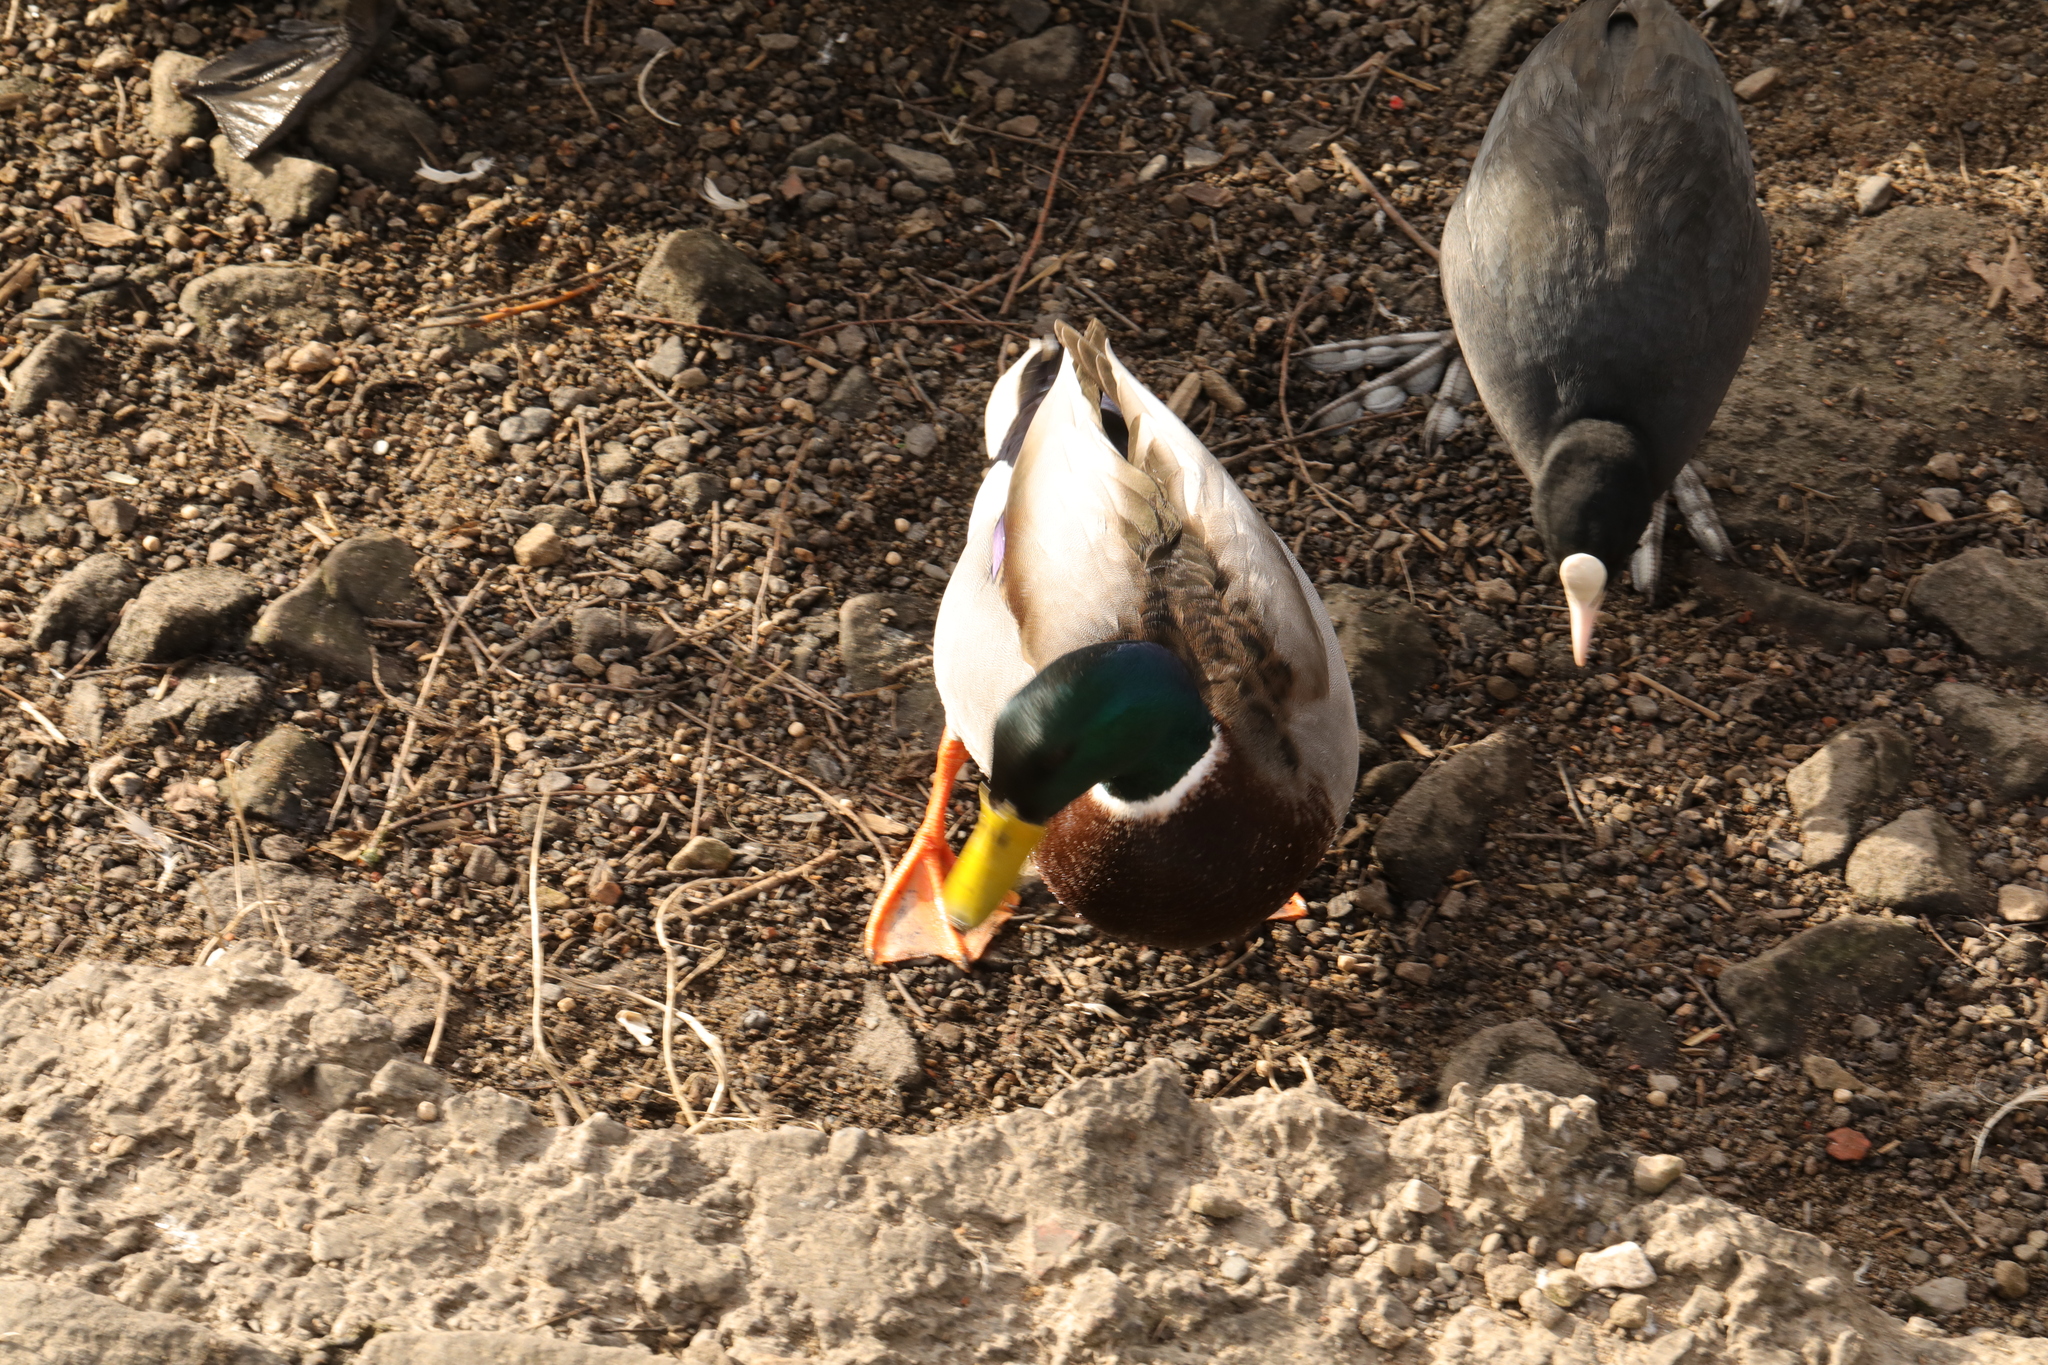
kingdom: Animalia
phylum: Chordata
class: Aves
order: Anseriformes
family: Anatidae
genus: Anas
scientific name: Anas platyrhynchos
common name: Mallard
